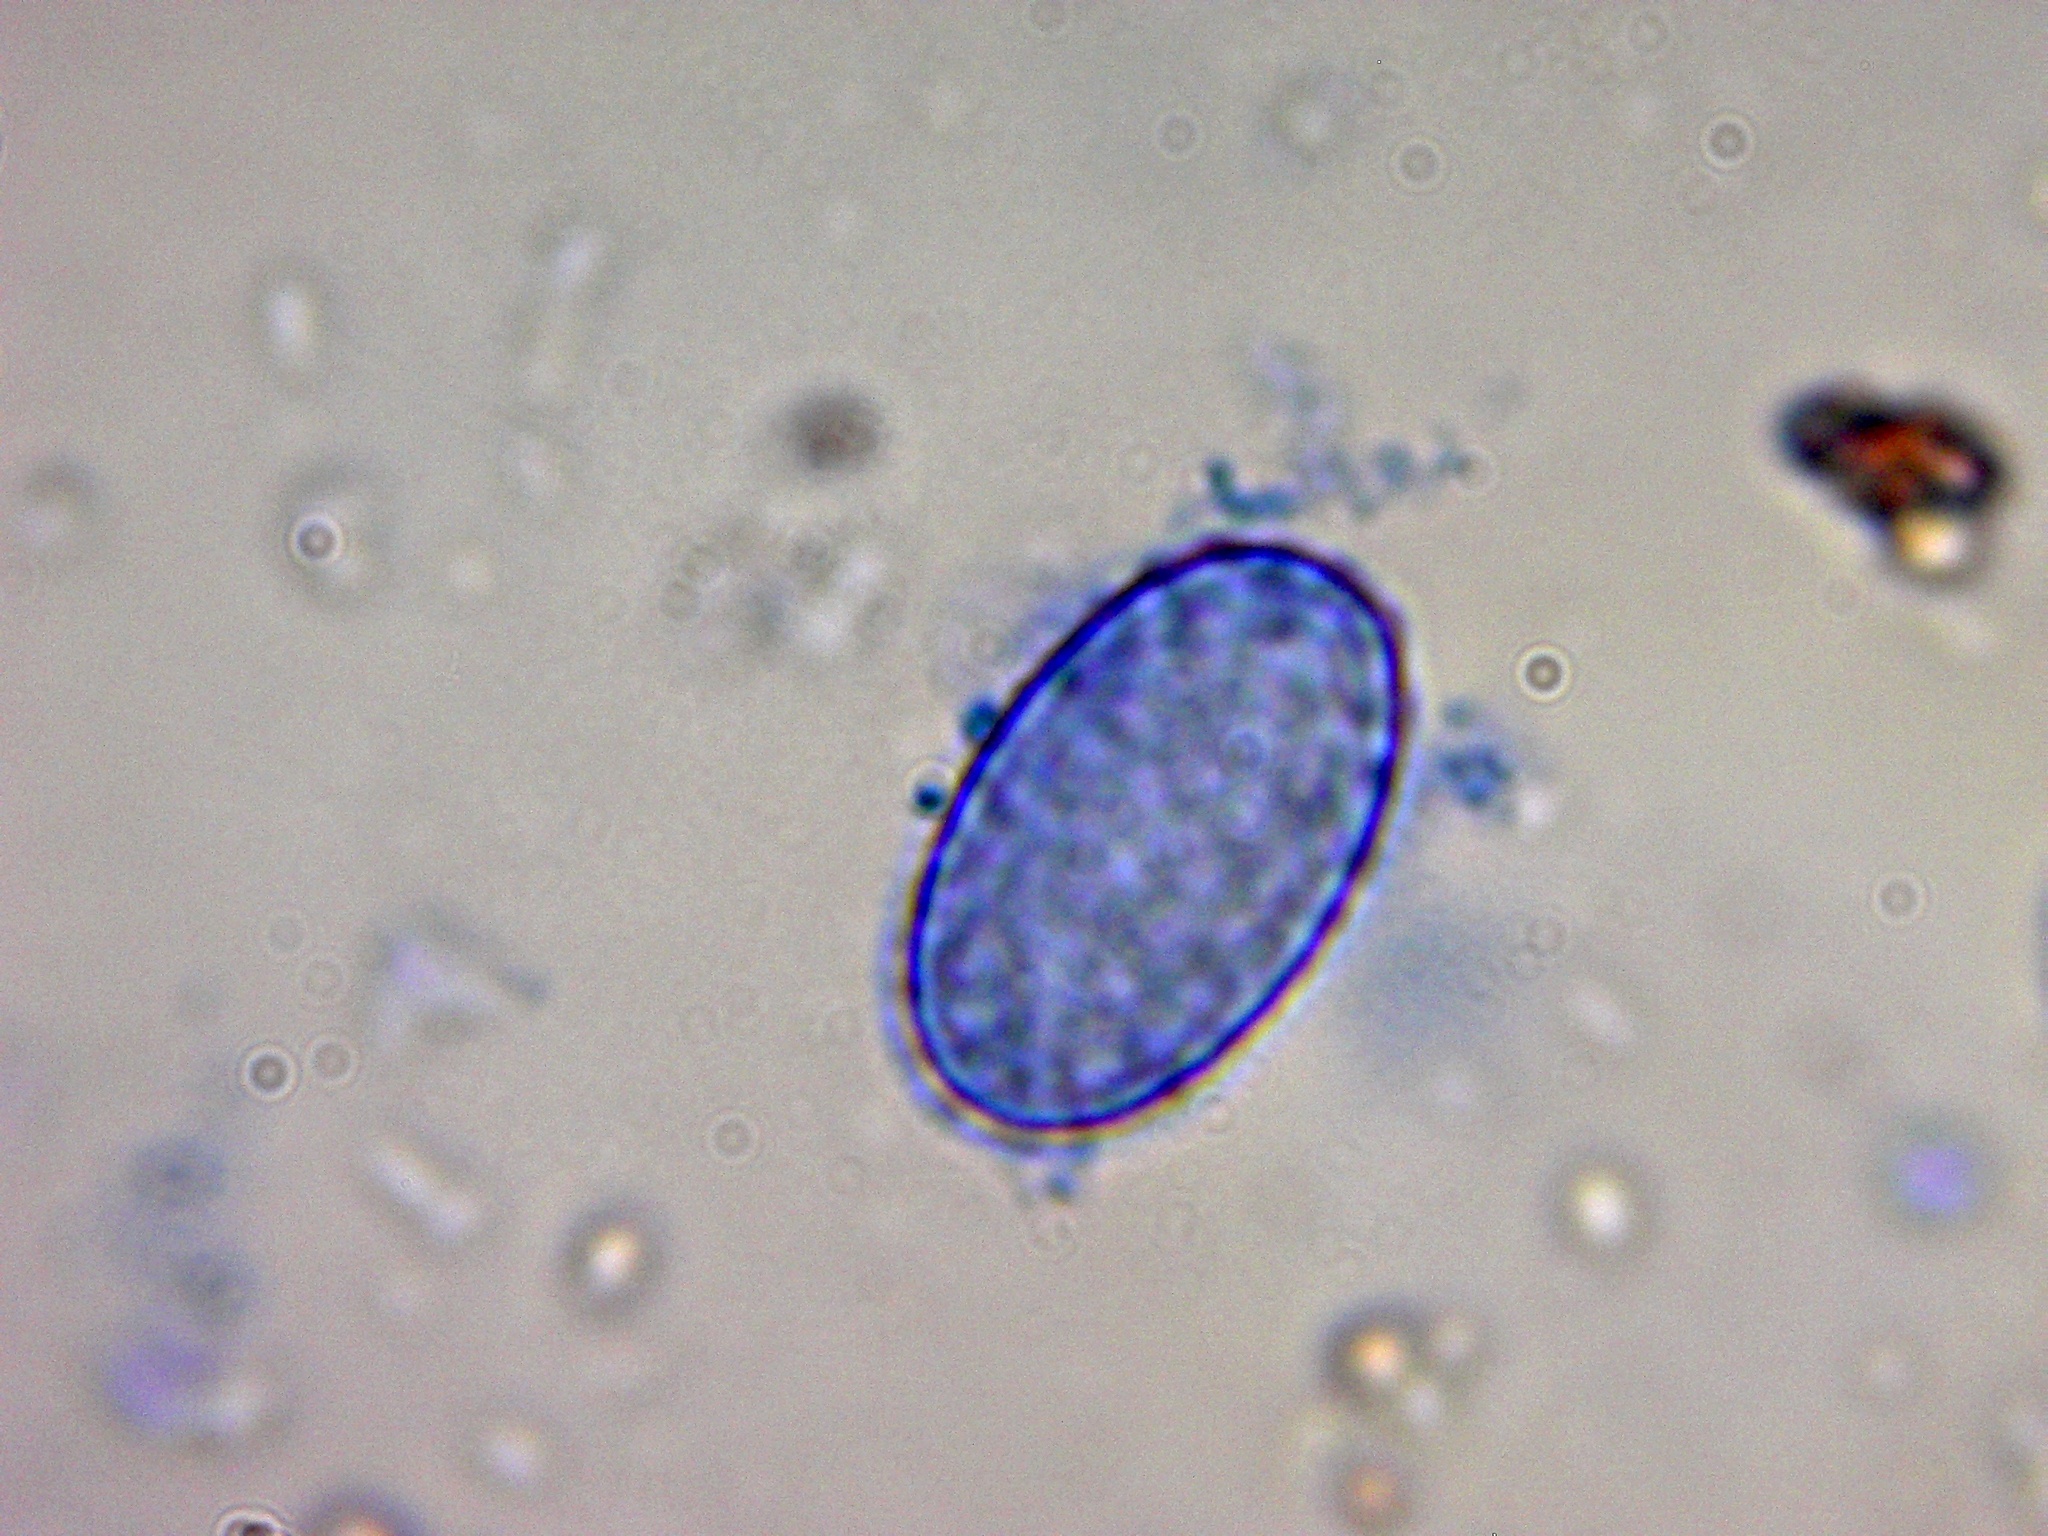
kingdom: Fungi
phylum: Ascomycota
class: Pezizomycetes
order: Pezizales
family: Pyronemataceae
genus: Scutellinia
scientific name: Scutellinia crinita
